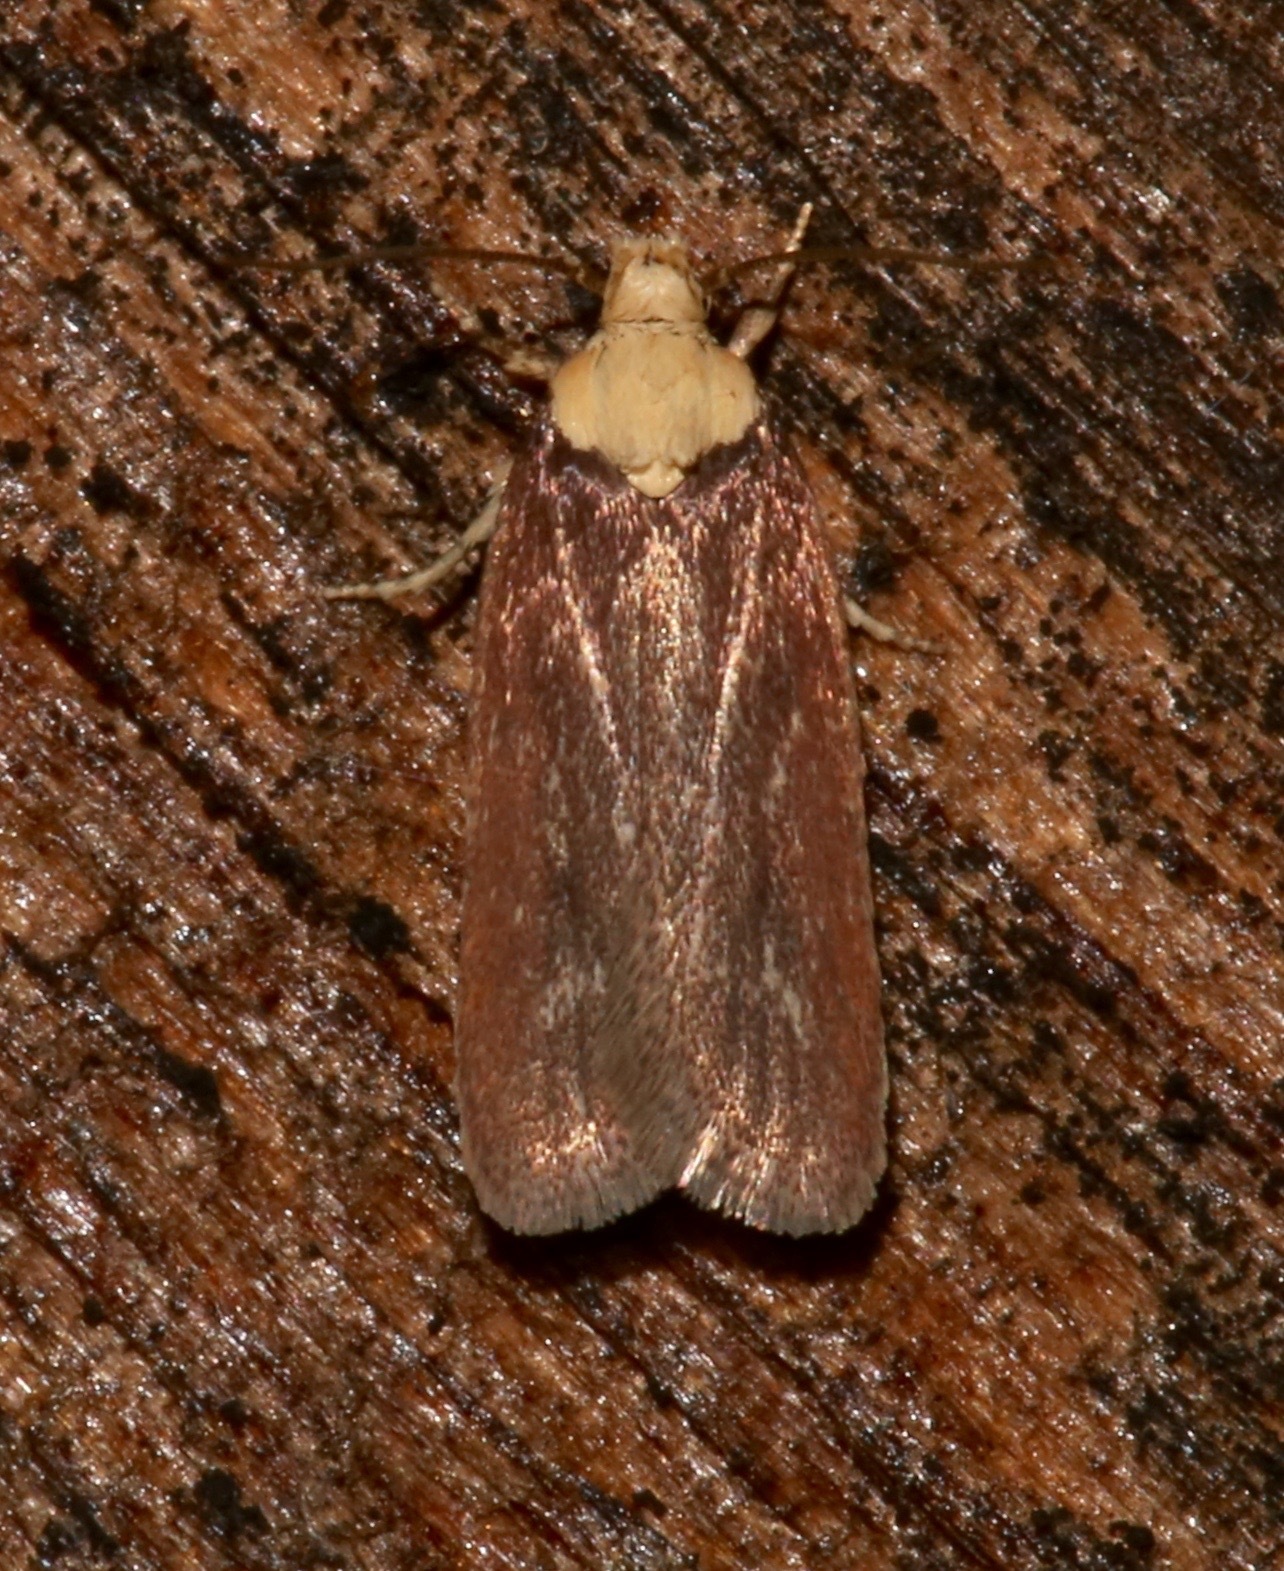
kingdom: Animalia
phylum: Arthropoda
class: Insecta
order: Lepidoptera
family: Depressariidae
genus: Depressaria
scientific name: Depressaria depressana
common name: Lost flat-body
